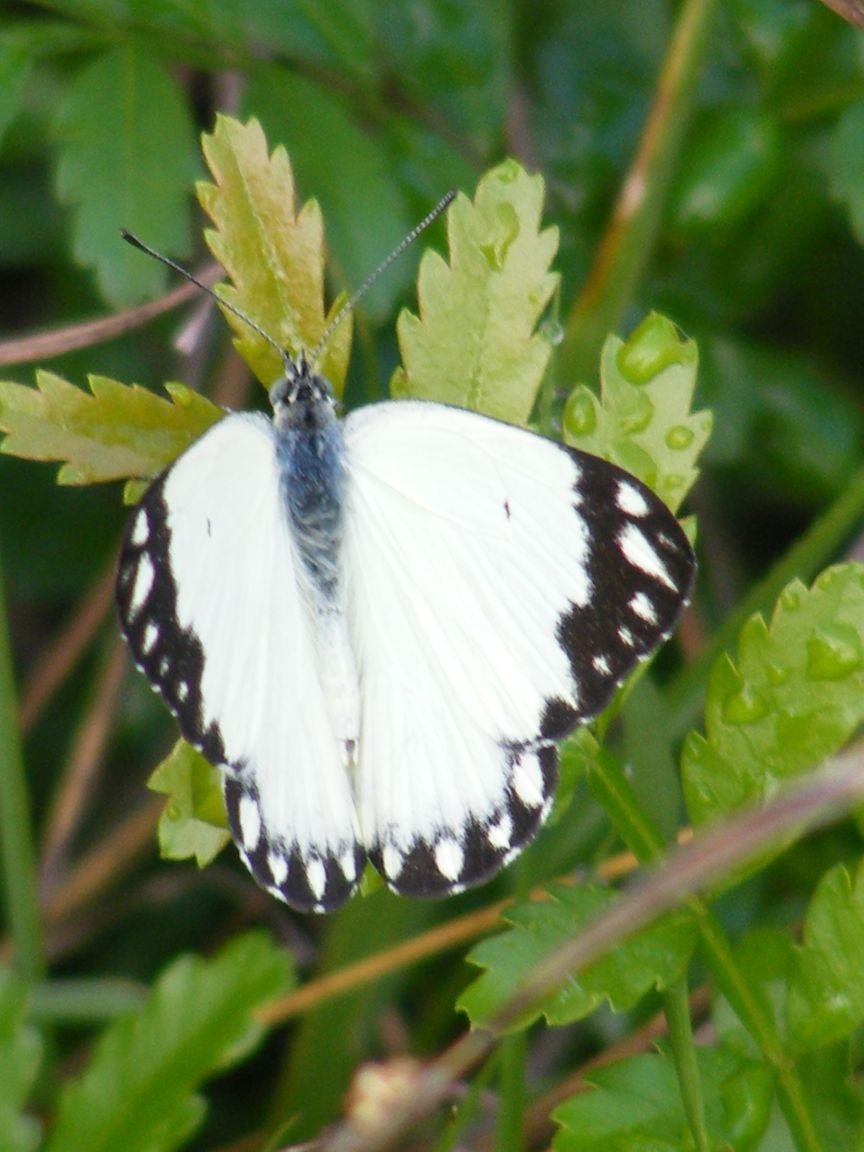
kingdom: Animalia
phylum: Arthropoda
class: Insecta
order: Lepidoptera
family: Pieridae
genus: Belenois
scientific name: Belenois creona
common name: African caper white
